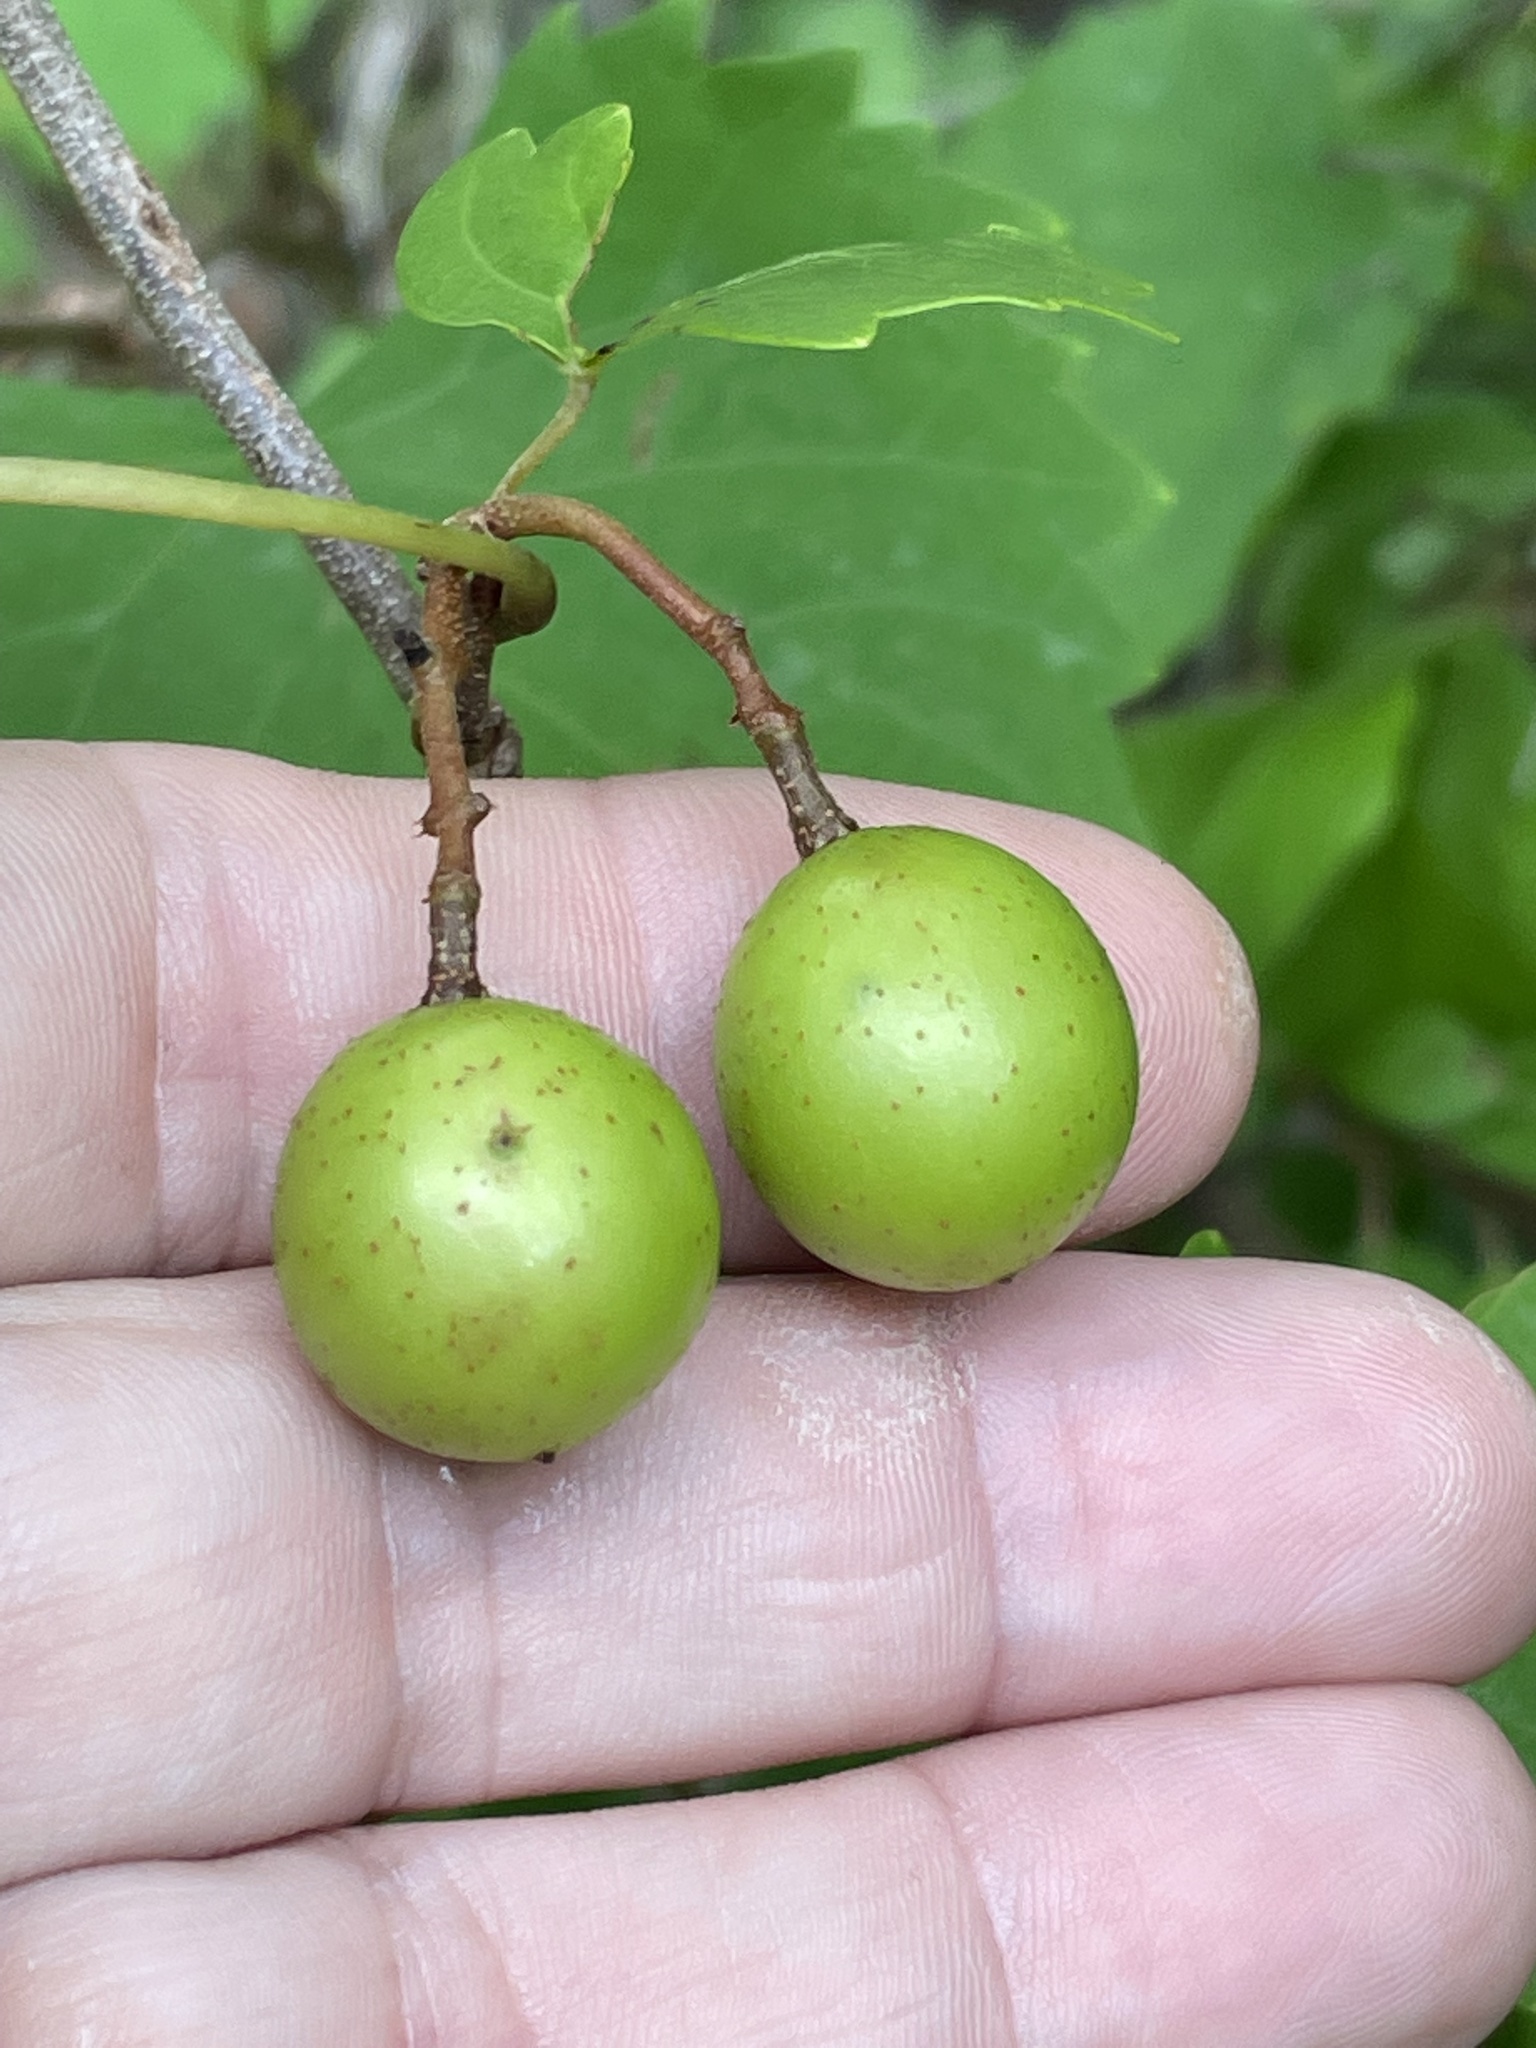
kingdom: Plantae
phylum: Tracheophyta
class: Magnoliopsida
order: Vitales
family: Vitaceae
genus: Vitis
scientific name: Vitis rotundifolia
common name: Muscadine grape
